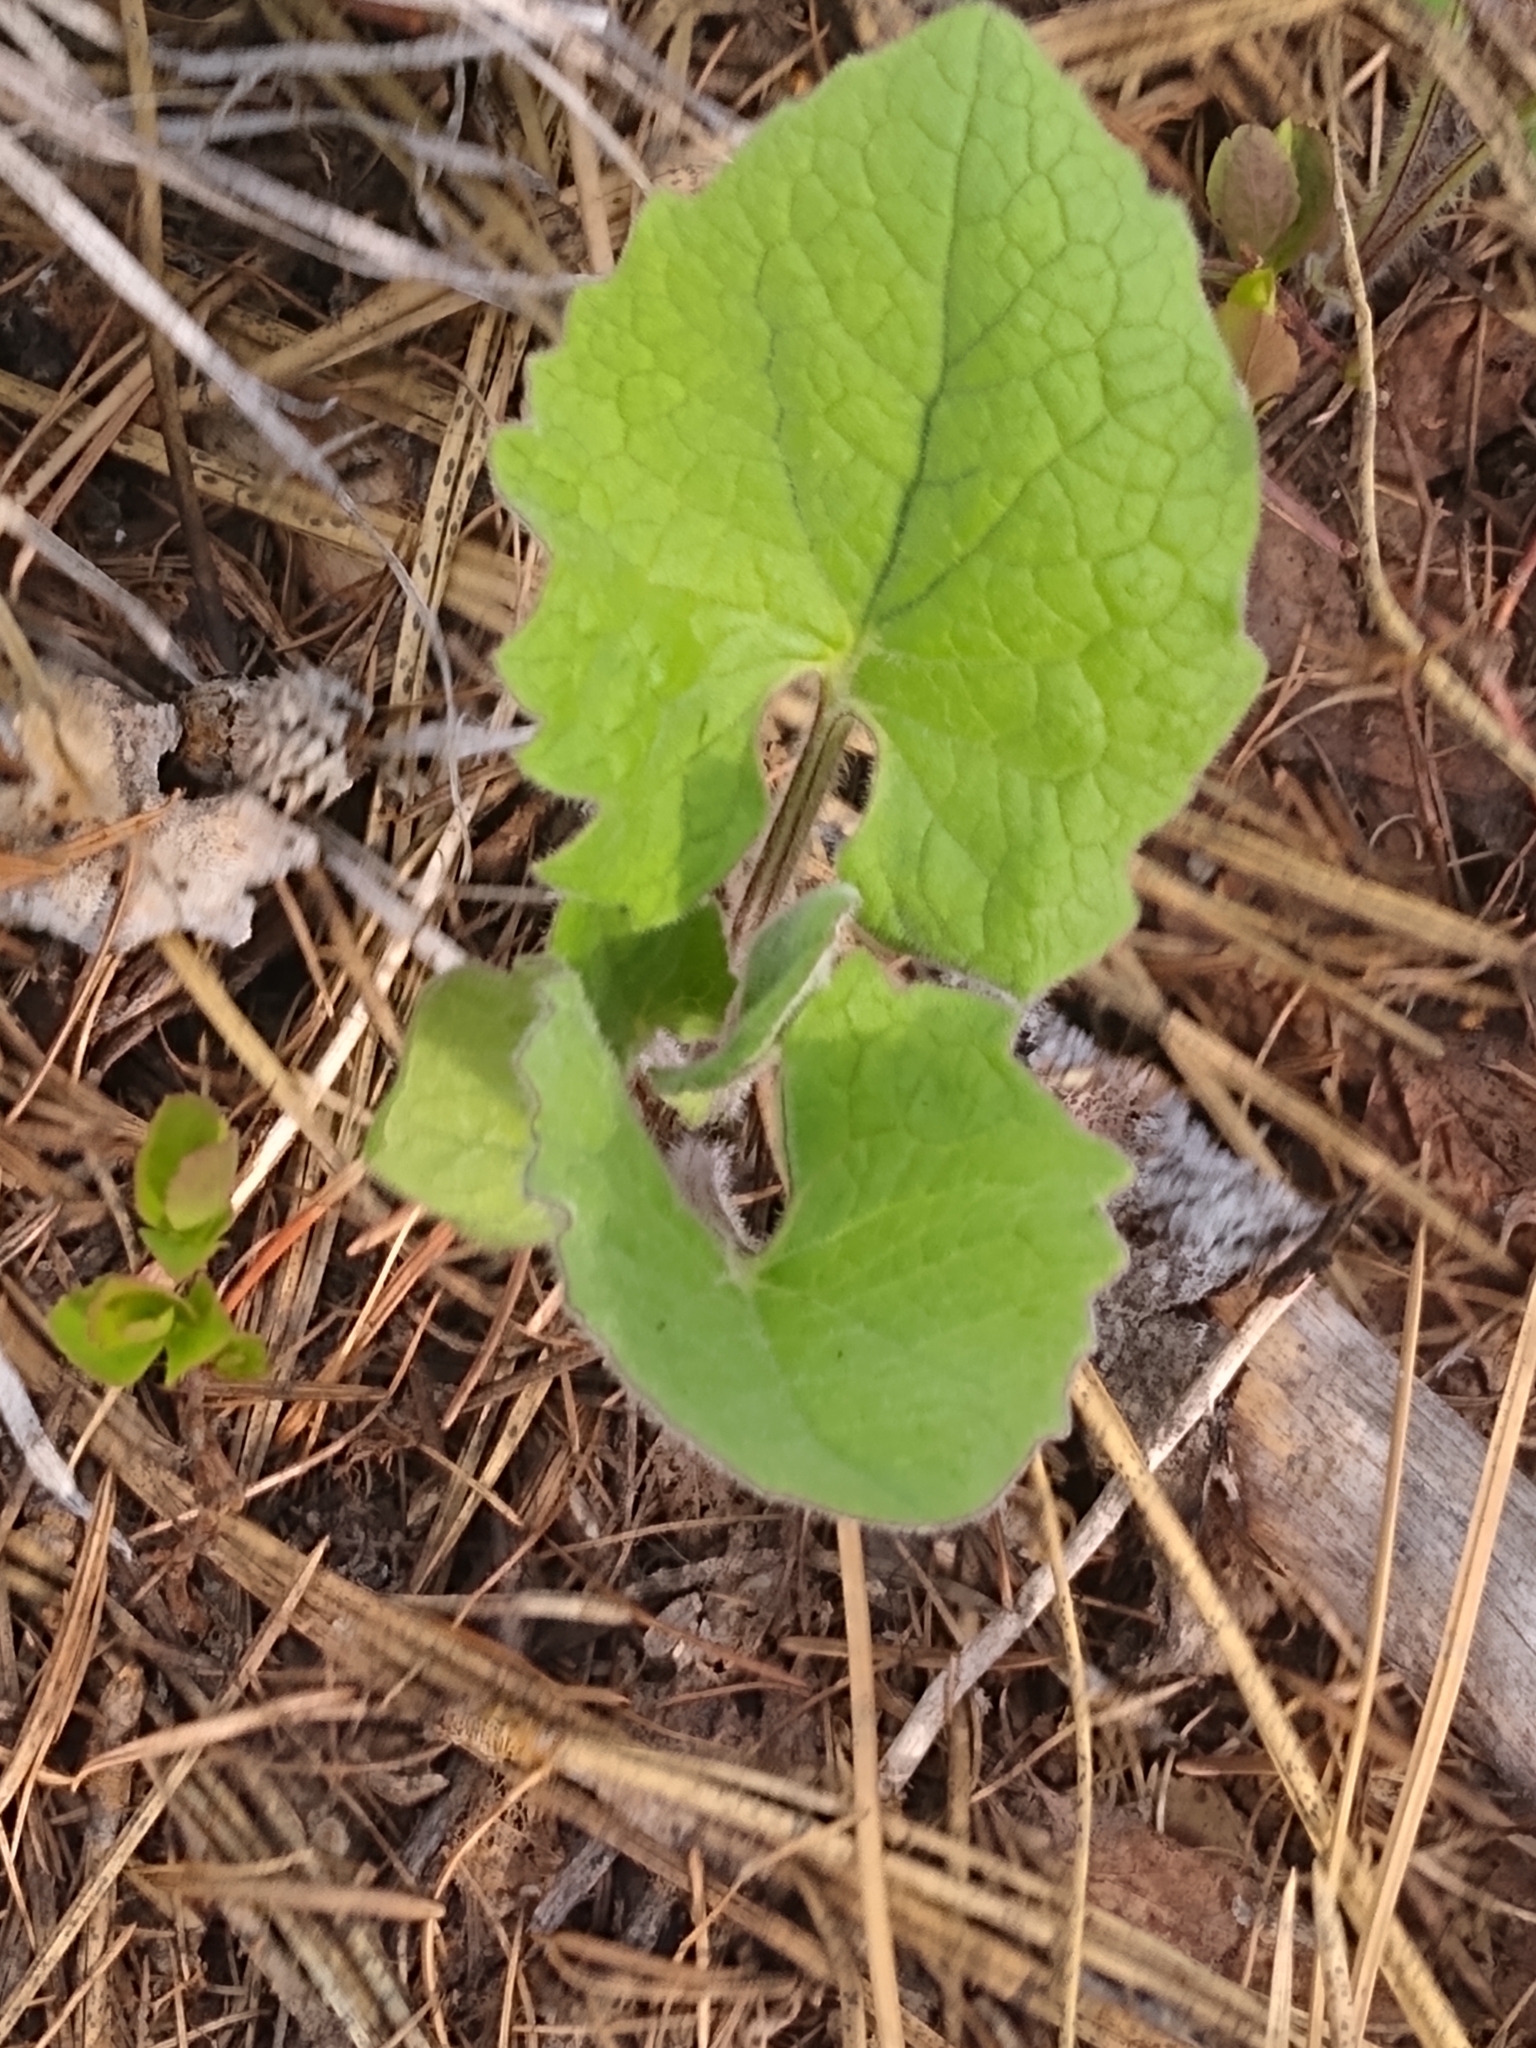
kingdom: Plantae
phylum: Tracheophyta
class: Magnoliopsida
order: Asterales
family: Asteraceae
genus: Arnica
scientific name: Arnica cordifolia
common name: Heart-leaf arnica
